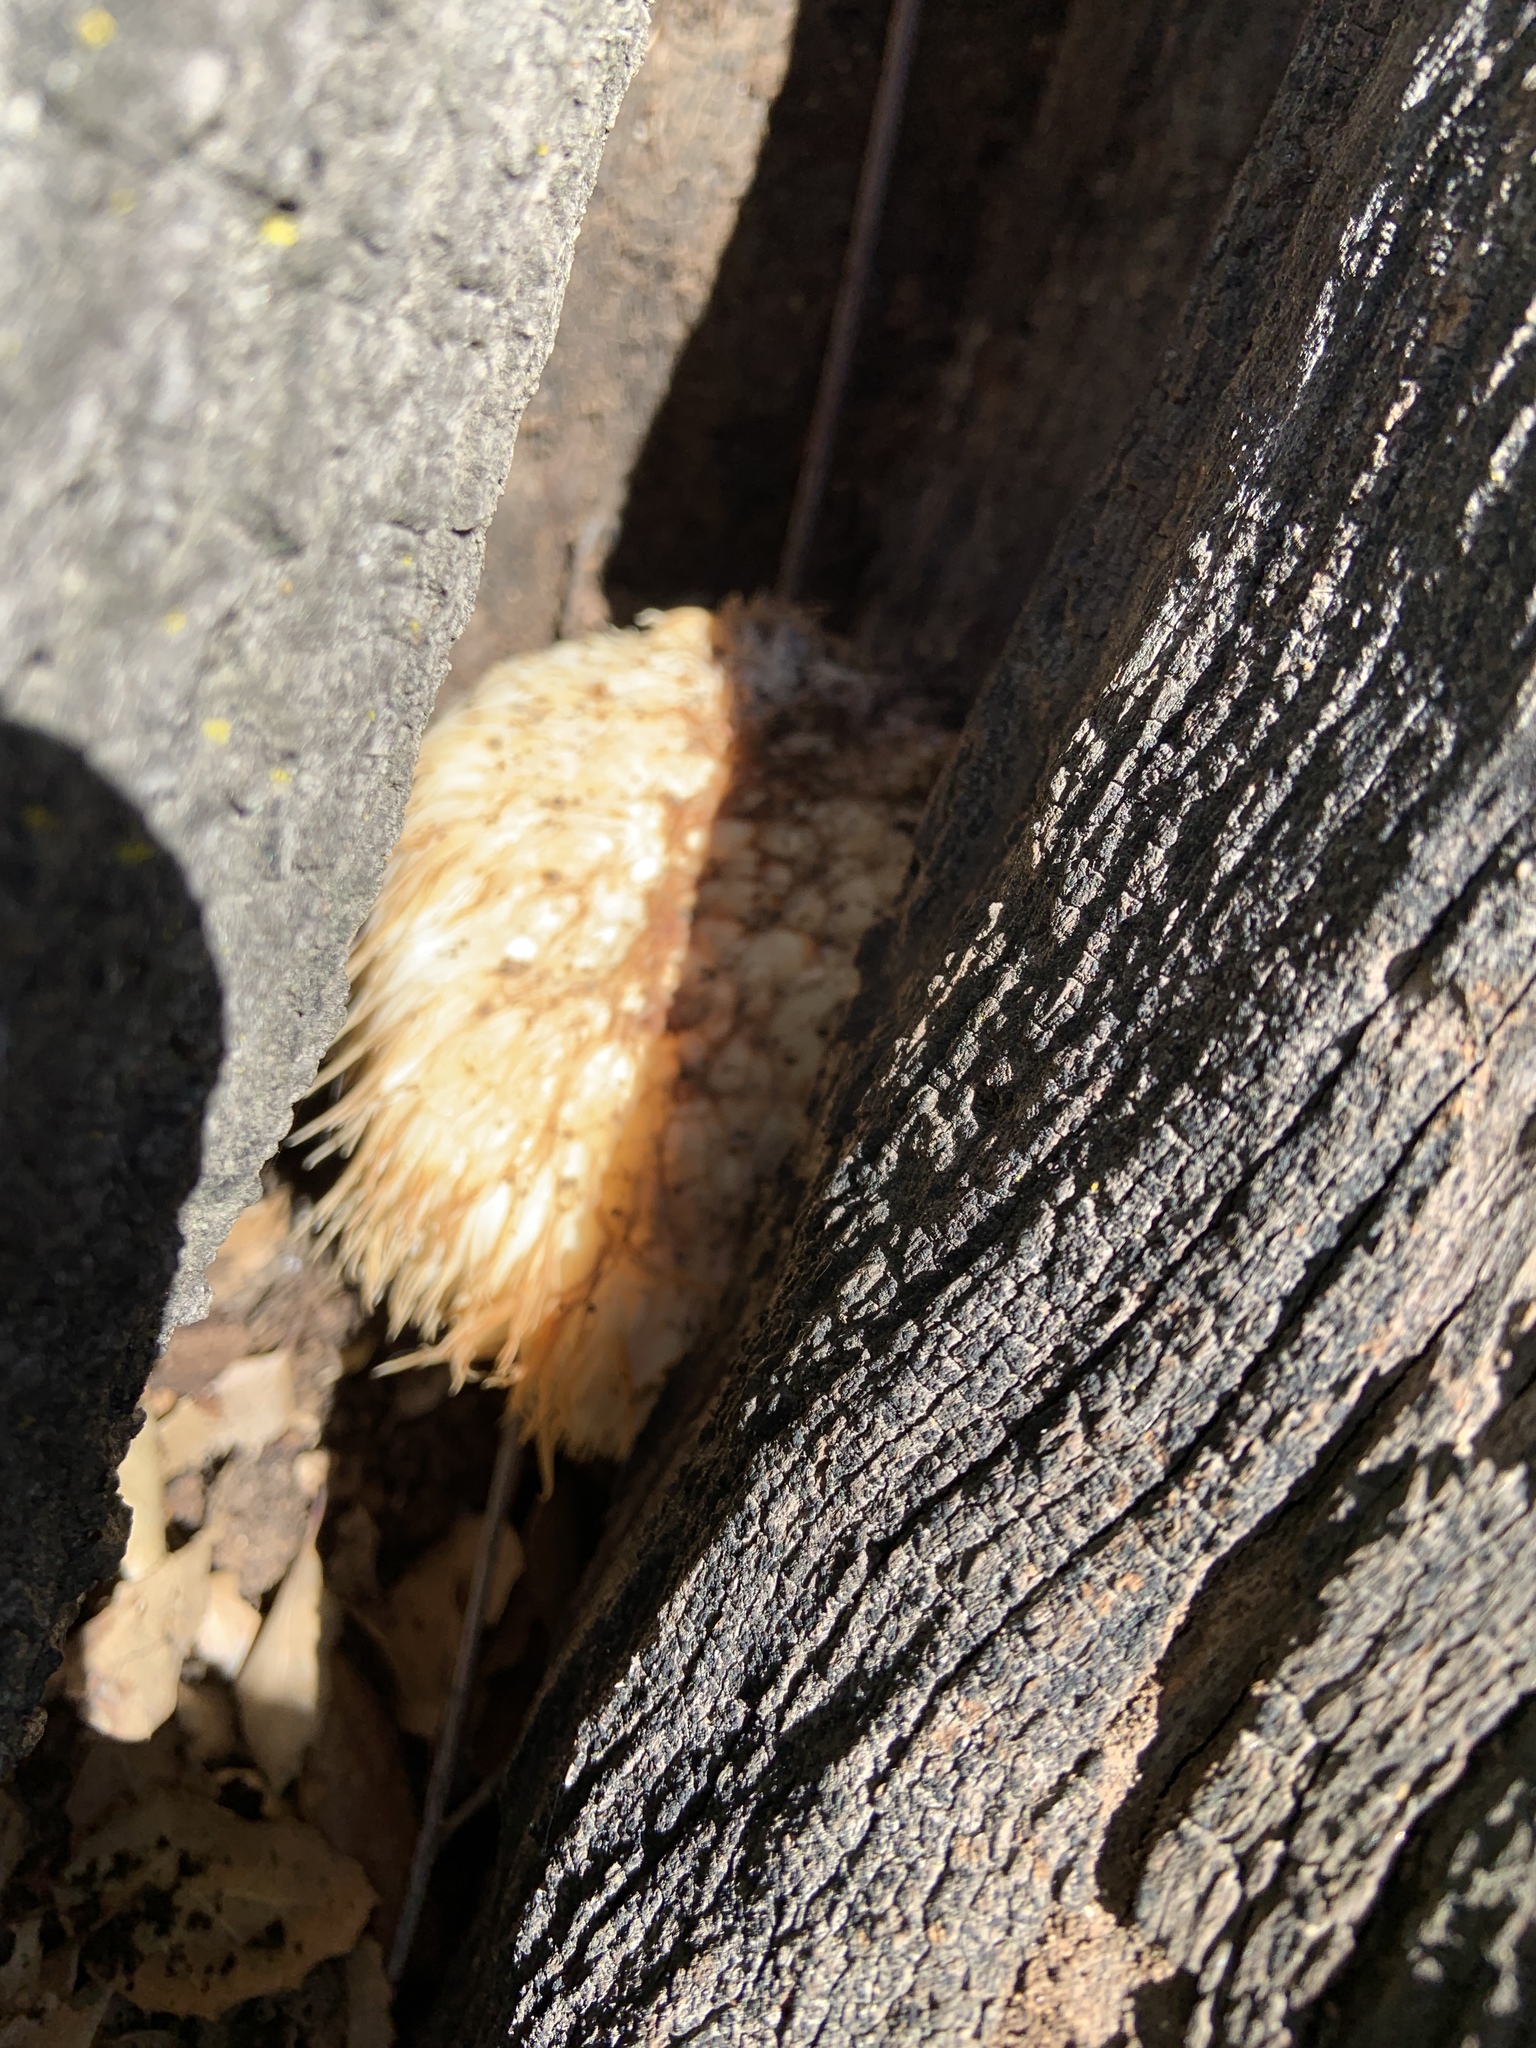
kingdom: Fungi
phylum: Basidiomycota
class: Agaricomycetes
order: Russulales
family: Hericiaceae
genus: Hericium
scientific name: Hericium erinaceus
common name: Bearded tooth
